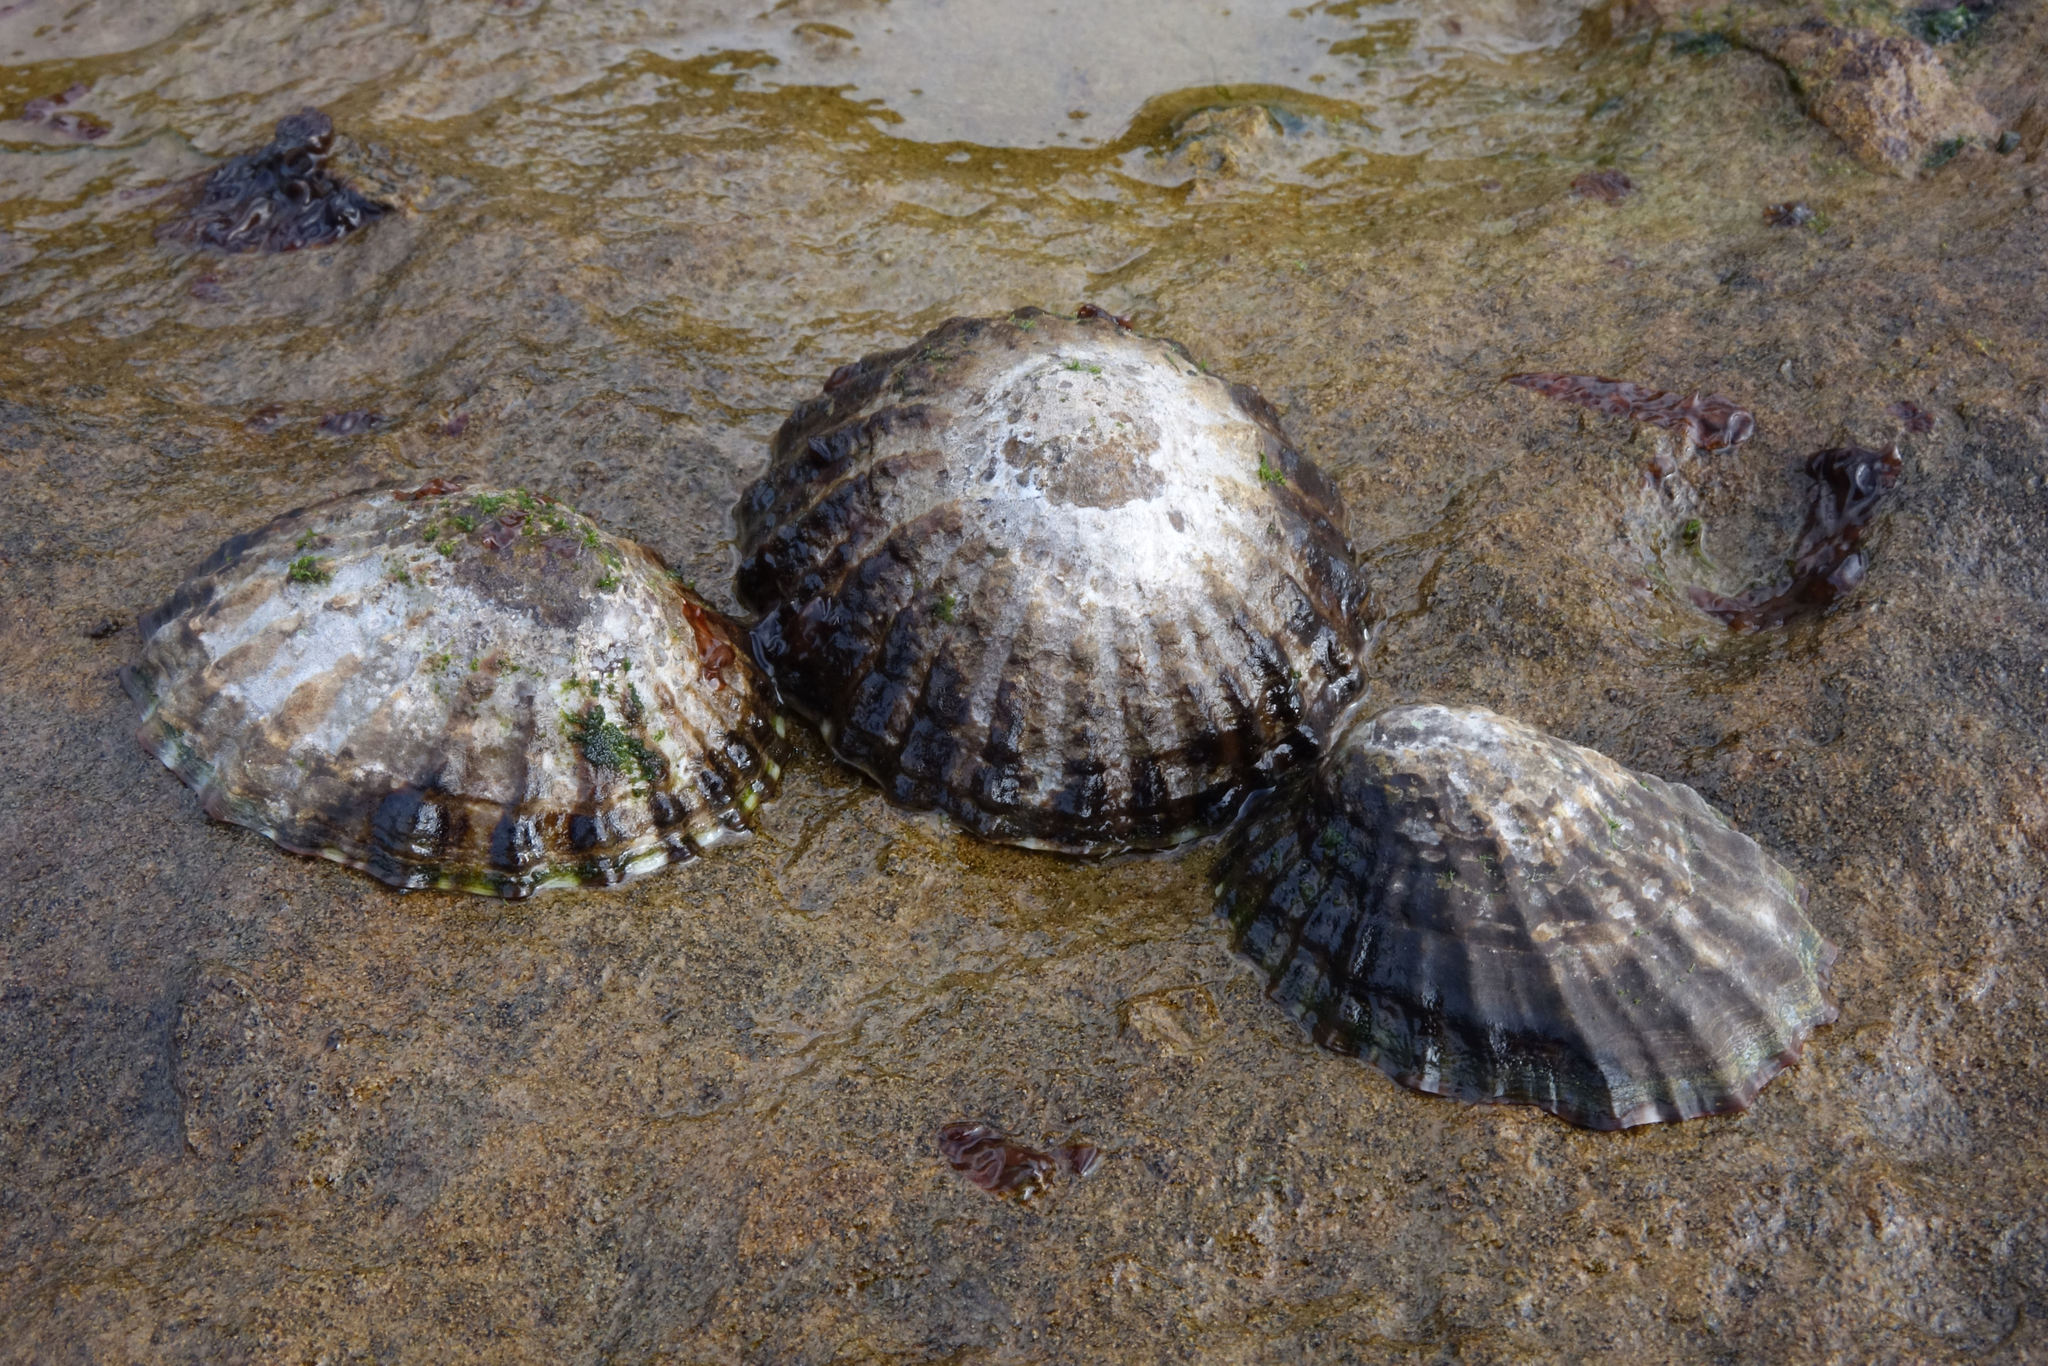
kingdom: Animalia
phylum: Mollusca
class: Gastropoda
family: Nacellidae
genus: Cellana
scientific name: Cellana strigilis
